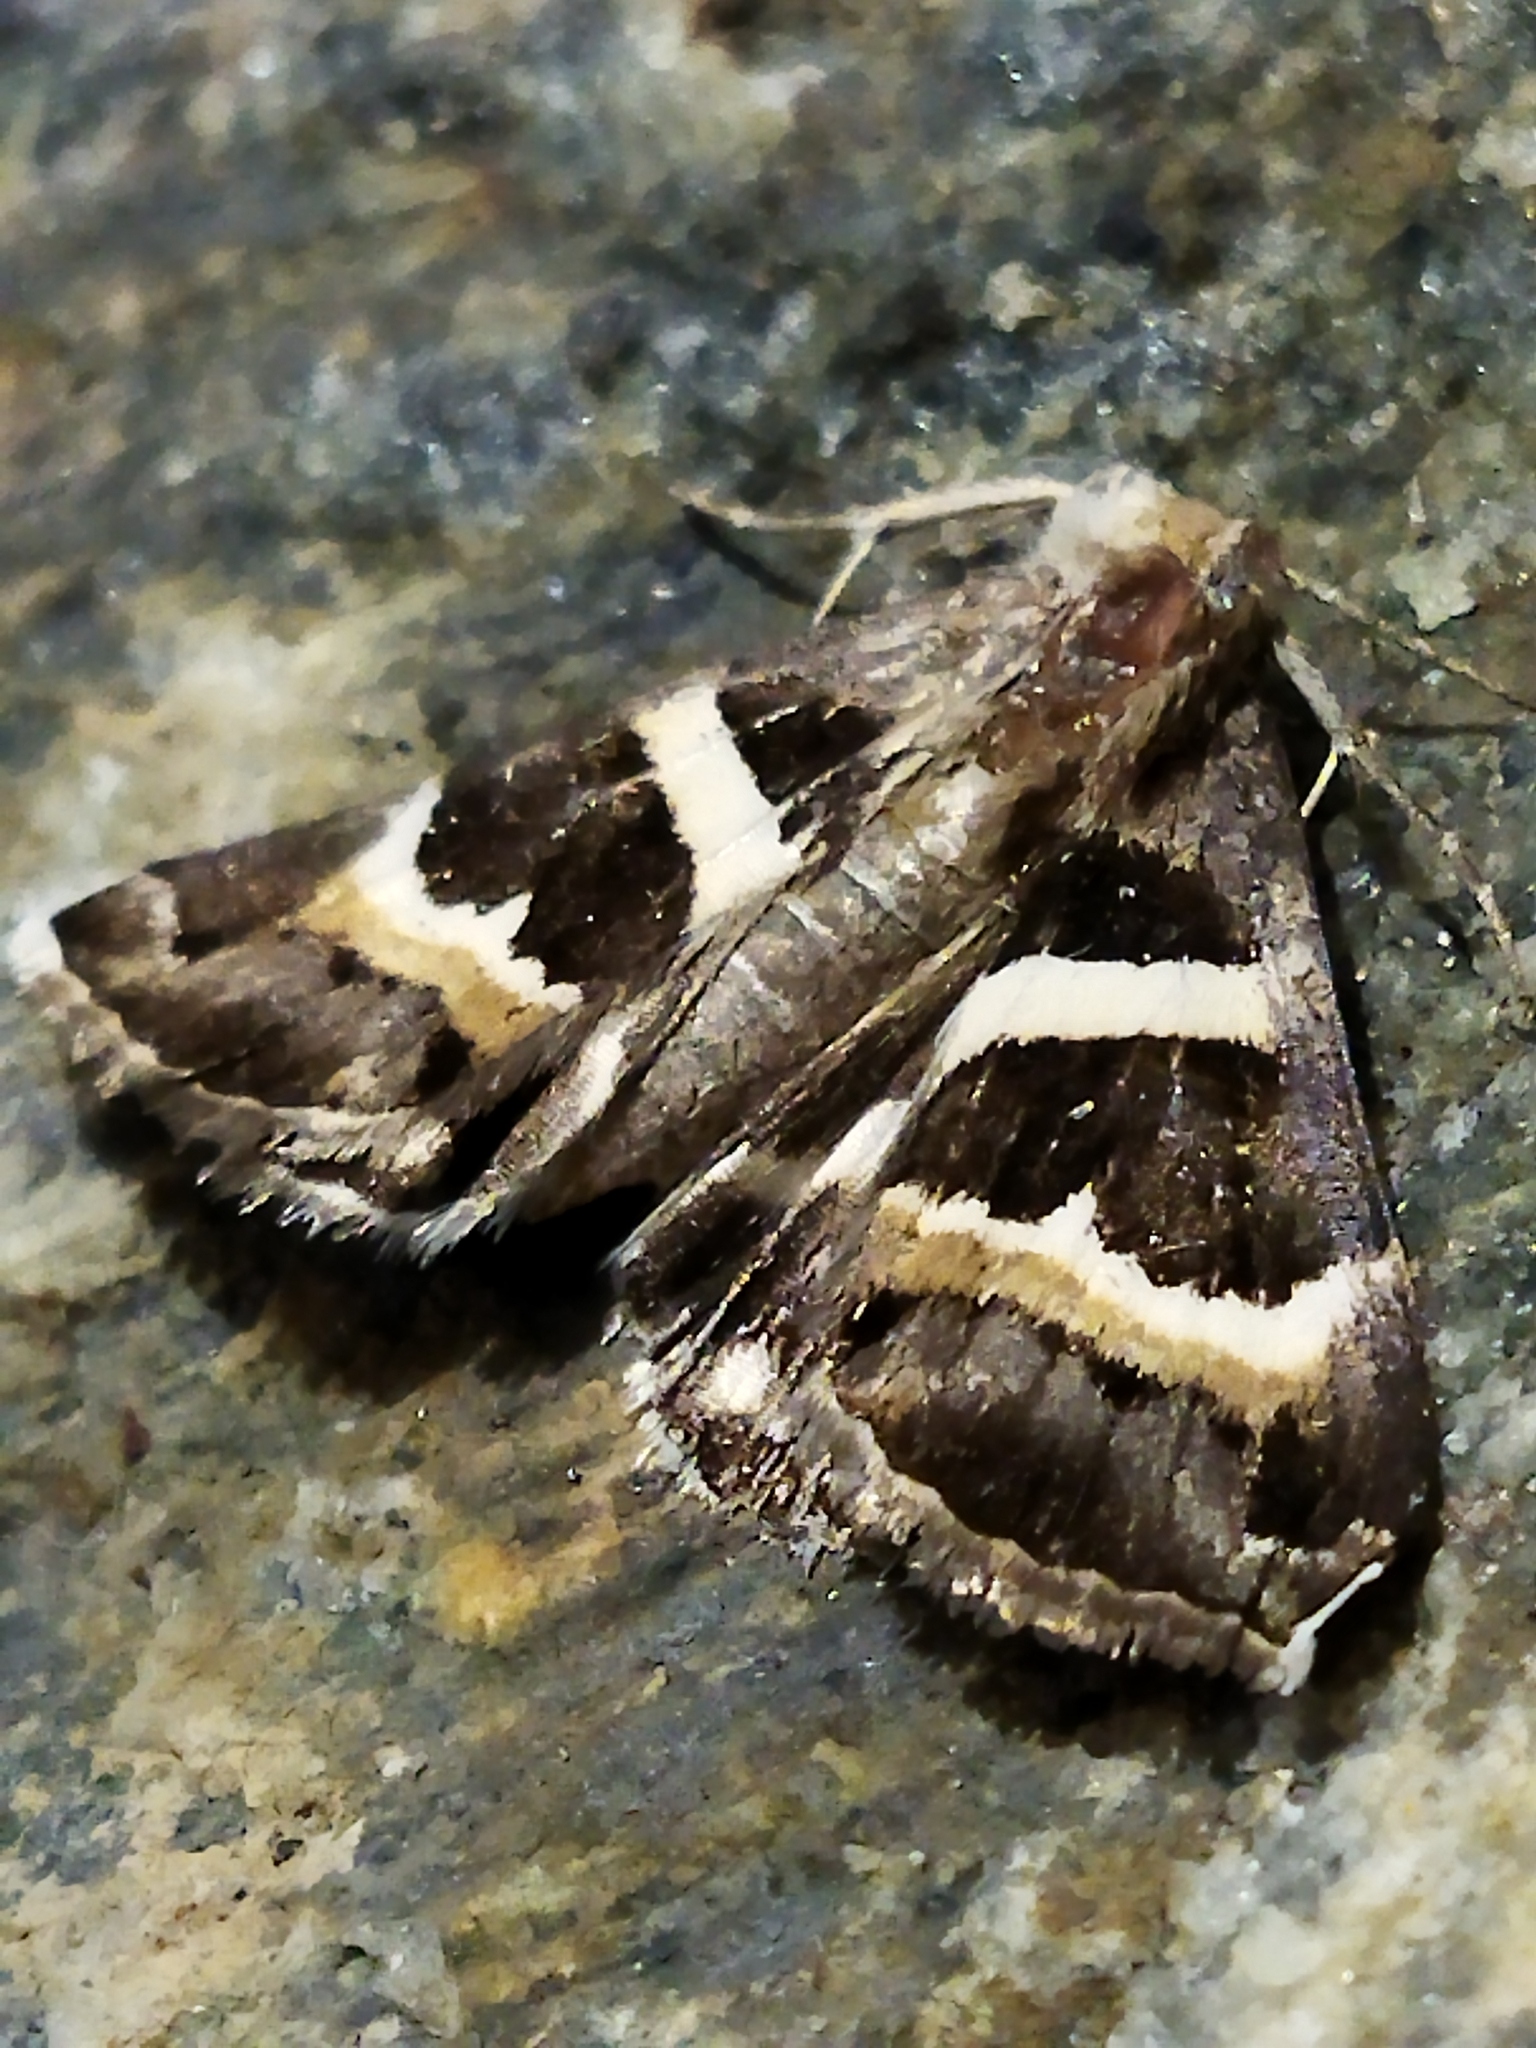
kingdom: Animalia
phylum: Arthropoda
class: Insecta
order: Lepidoptera
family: Erebidae
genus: Grammodes
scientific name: Grammodes stolida
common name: Geometrician
